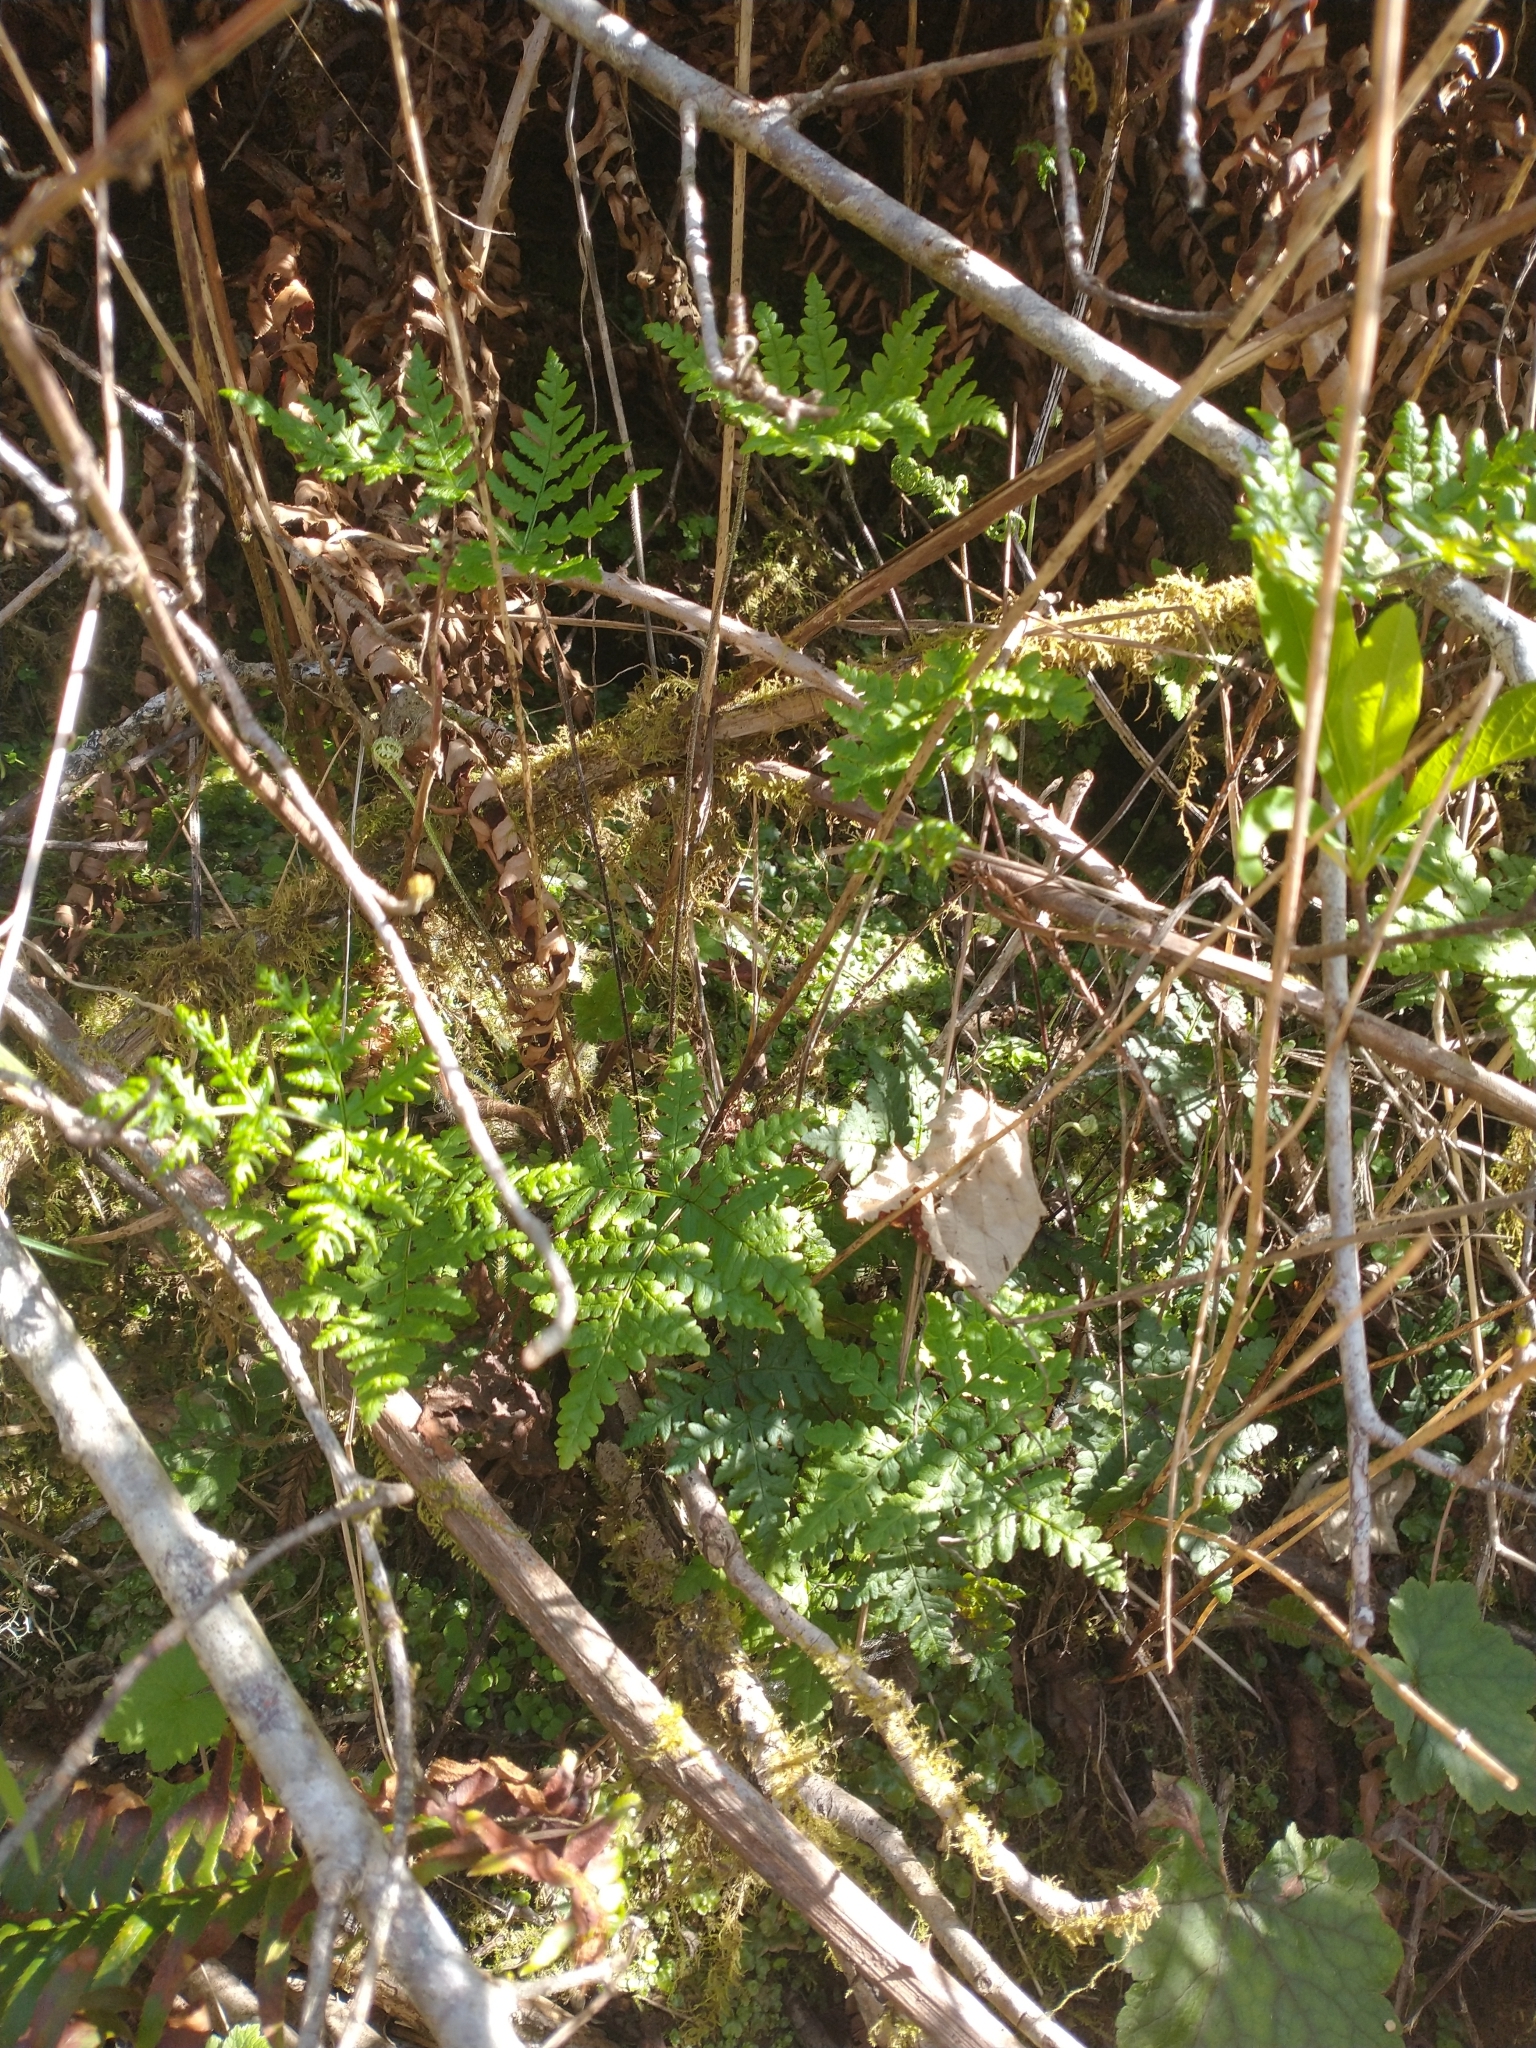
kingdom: Plantae
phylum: Tracheophyta
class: Polypodiopsida
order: Polypodiales
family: Pteridaceae
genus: Pentagramma
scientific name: Pentagramma triangularis
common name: Gold fern
